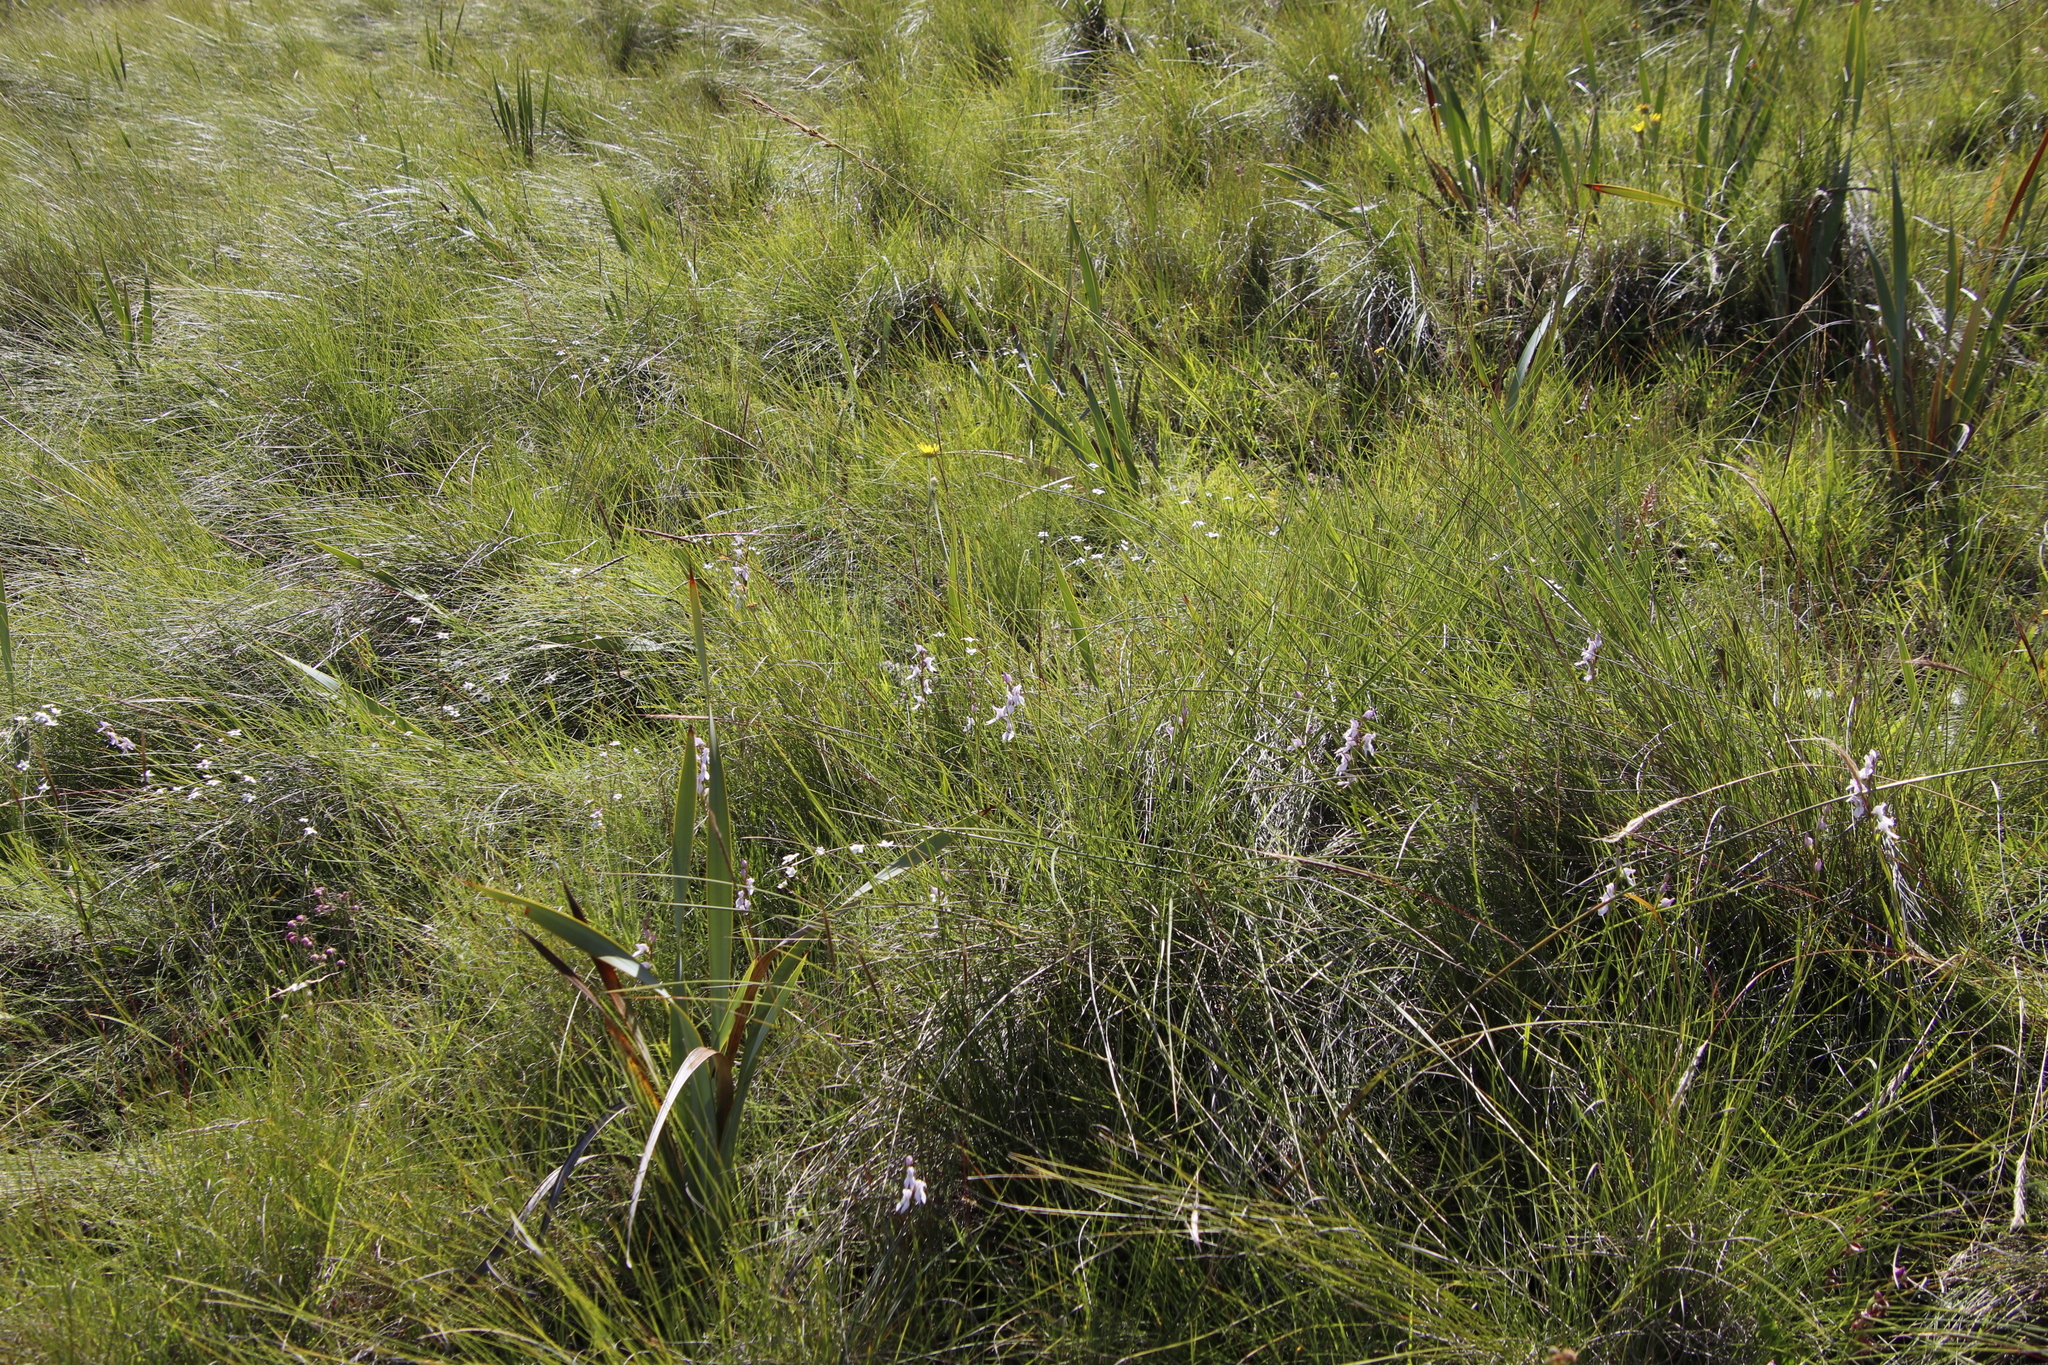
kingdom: Plantae
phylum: Tracheophyta
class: Liliopsida
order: Asparagales
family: Orchidaceae
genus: Brownleea
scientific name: Brownleea recurvata
